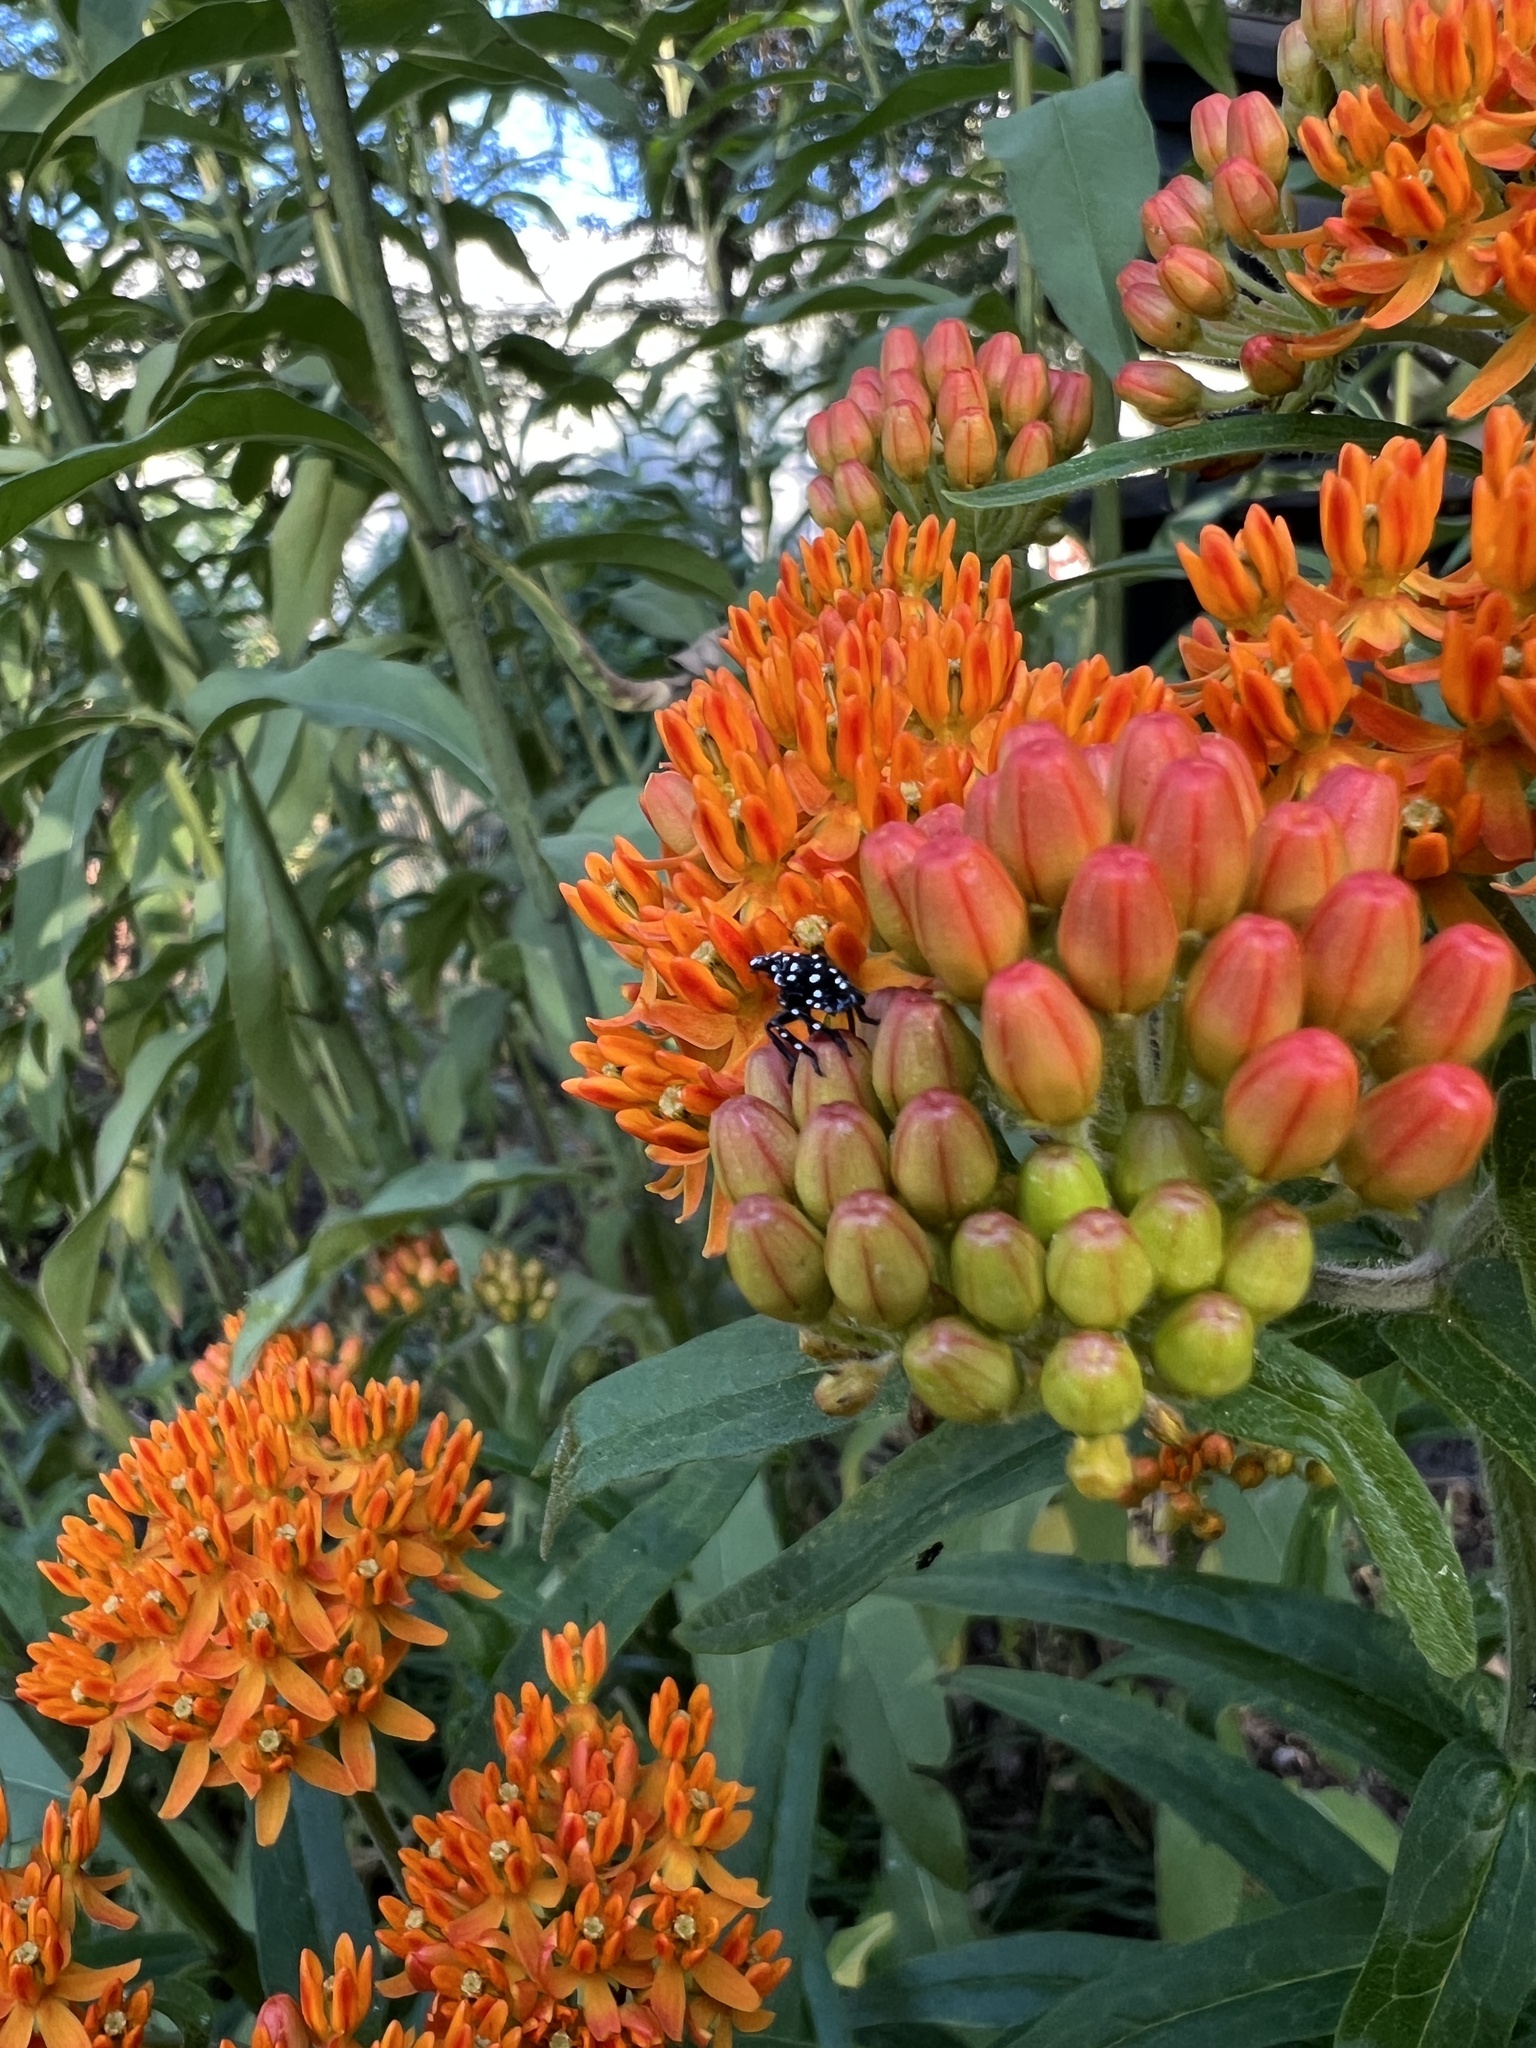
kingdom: Animalia
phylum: Arthropoda
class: Insecta
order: Hemiptera
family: Fulgoridae
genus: Lycorma
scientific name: Lycorma delicatula
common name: Spotted lanternfly
